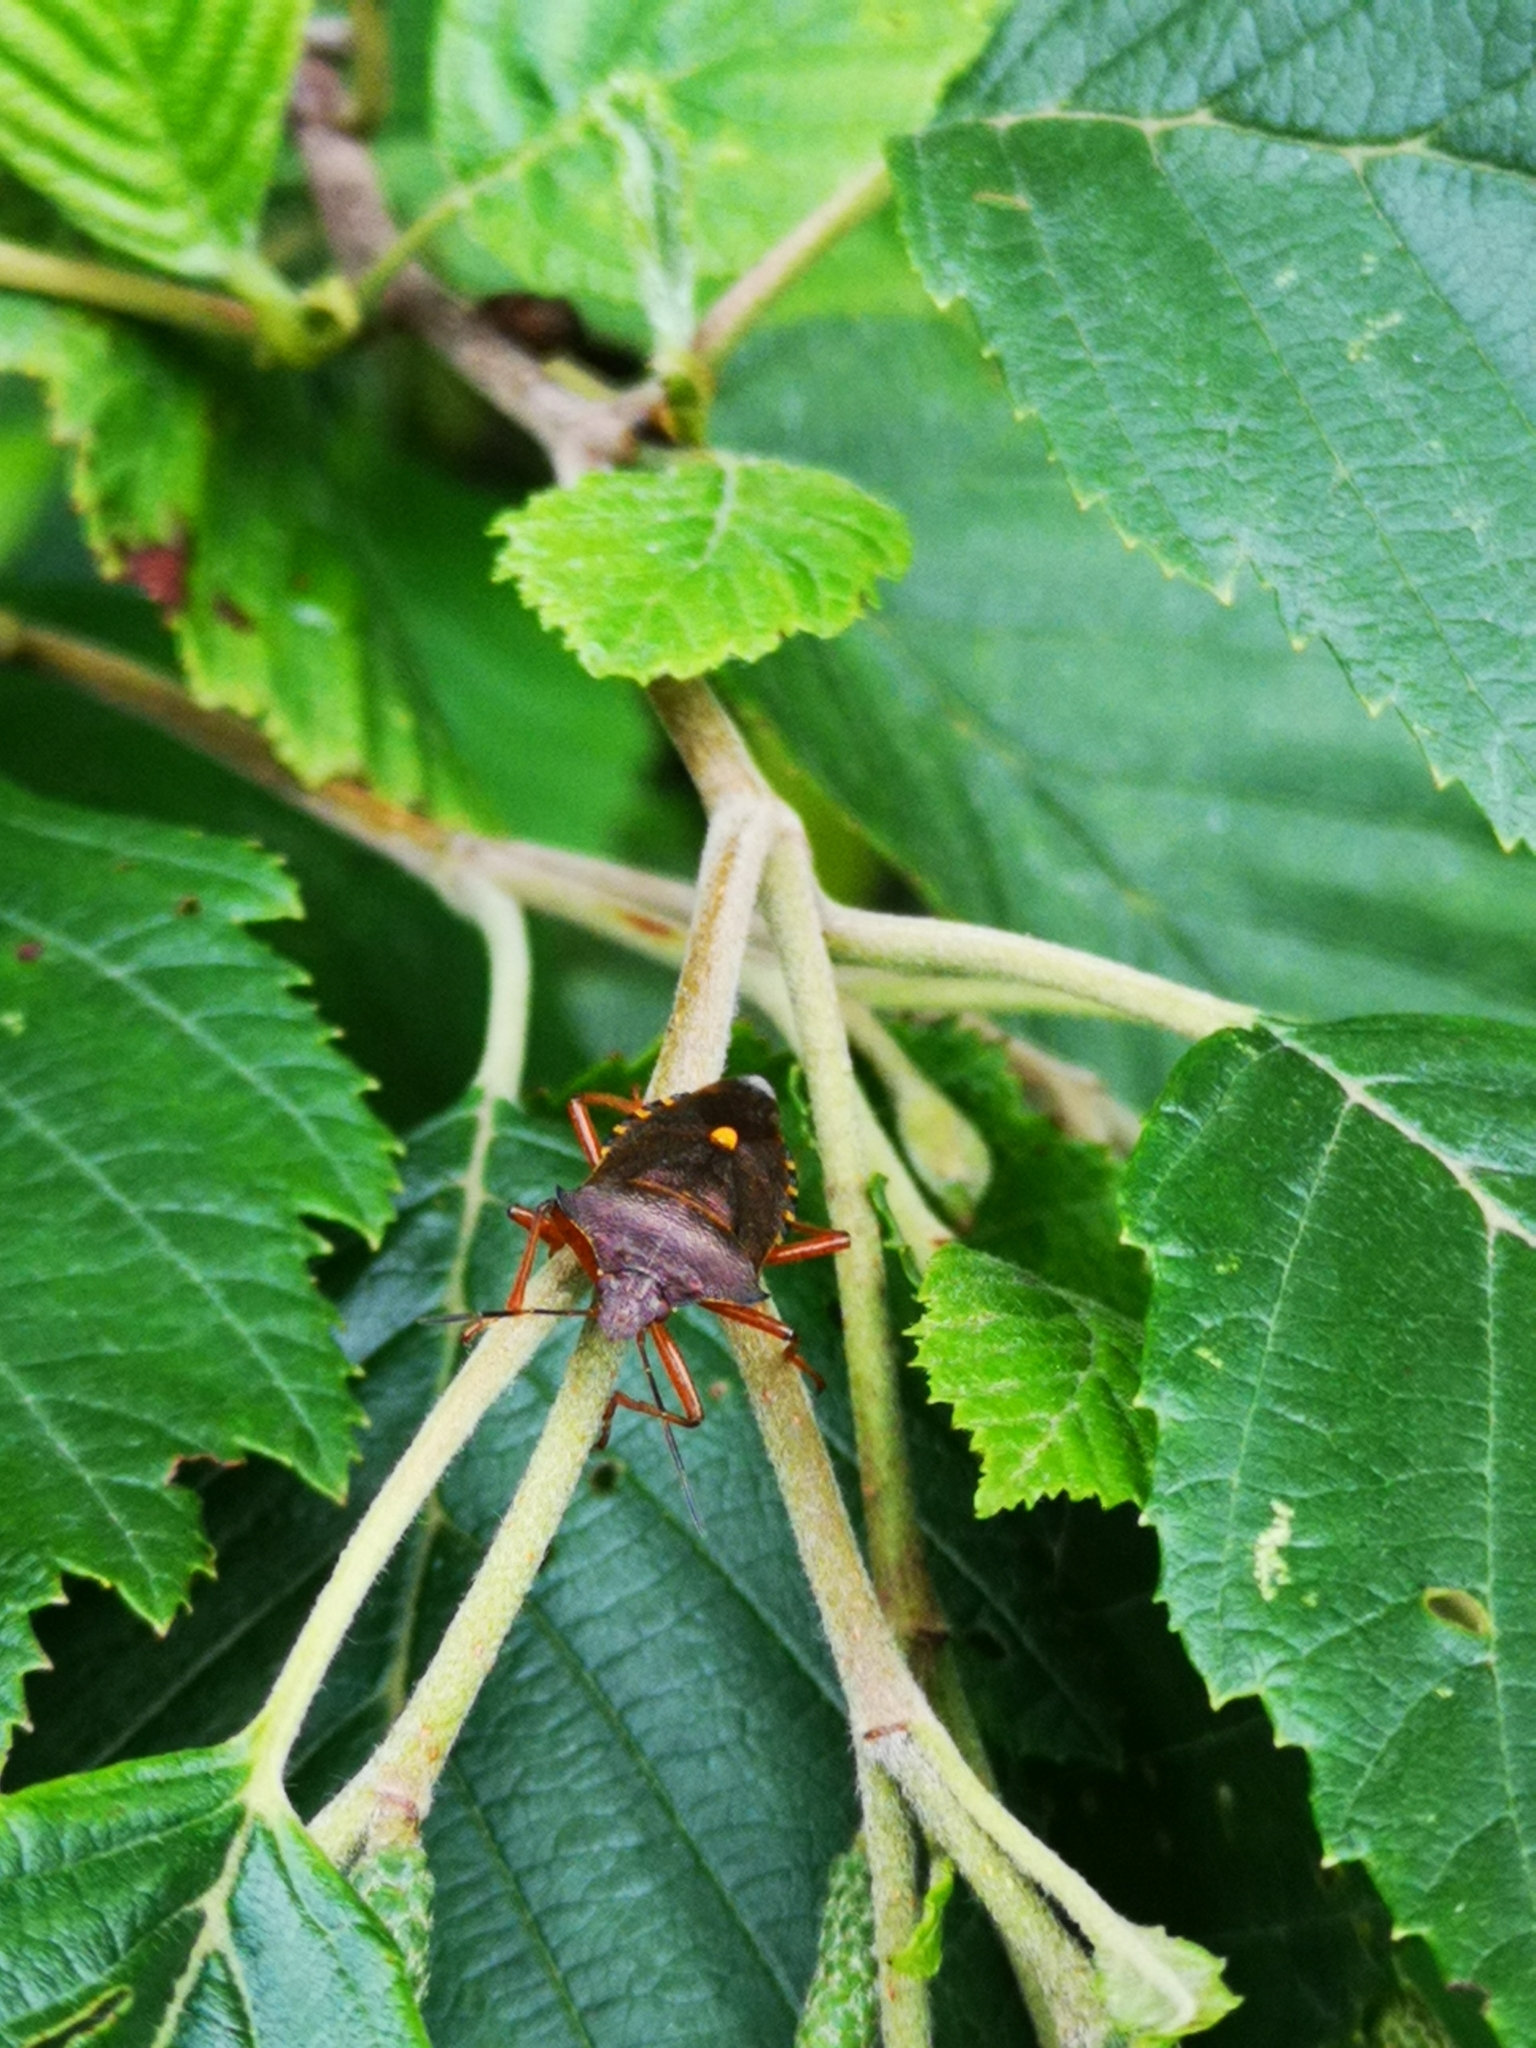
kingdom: Animalia
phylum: Arthropoda
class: Insecta
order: Hemiptera
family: Pentatomidae
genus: Pentatoma
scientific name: Pentatoma rufipes
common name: Forest bug
